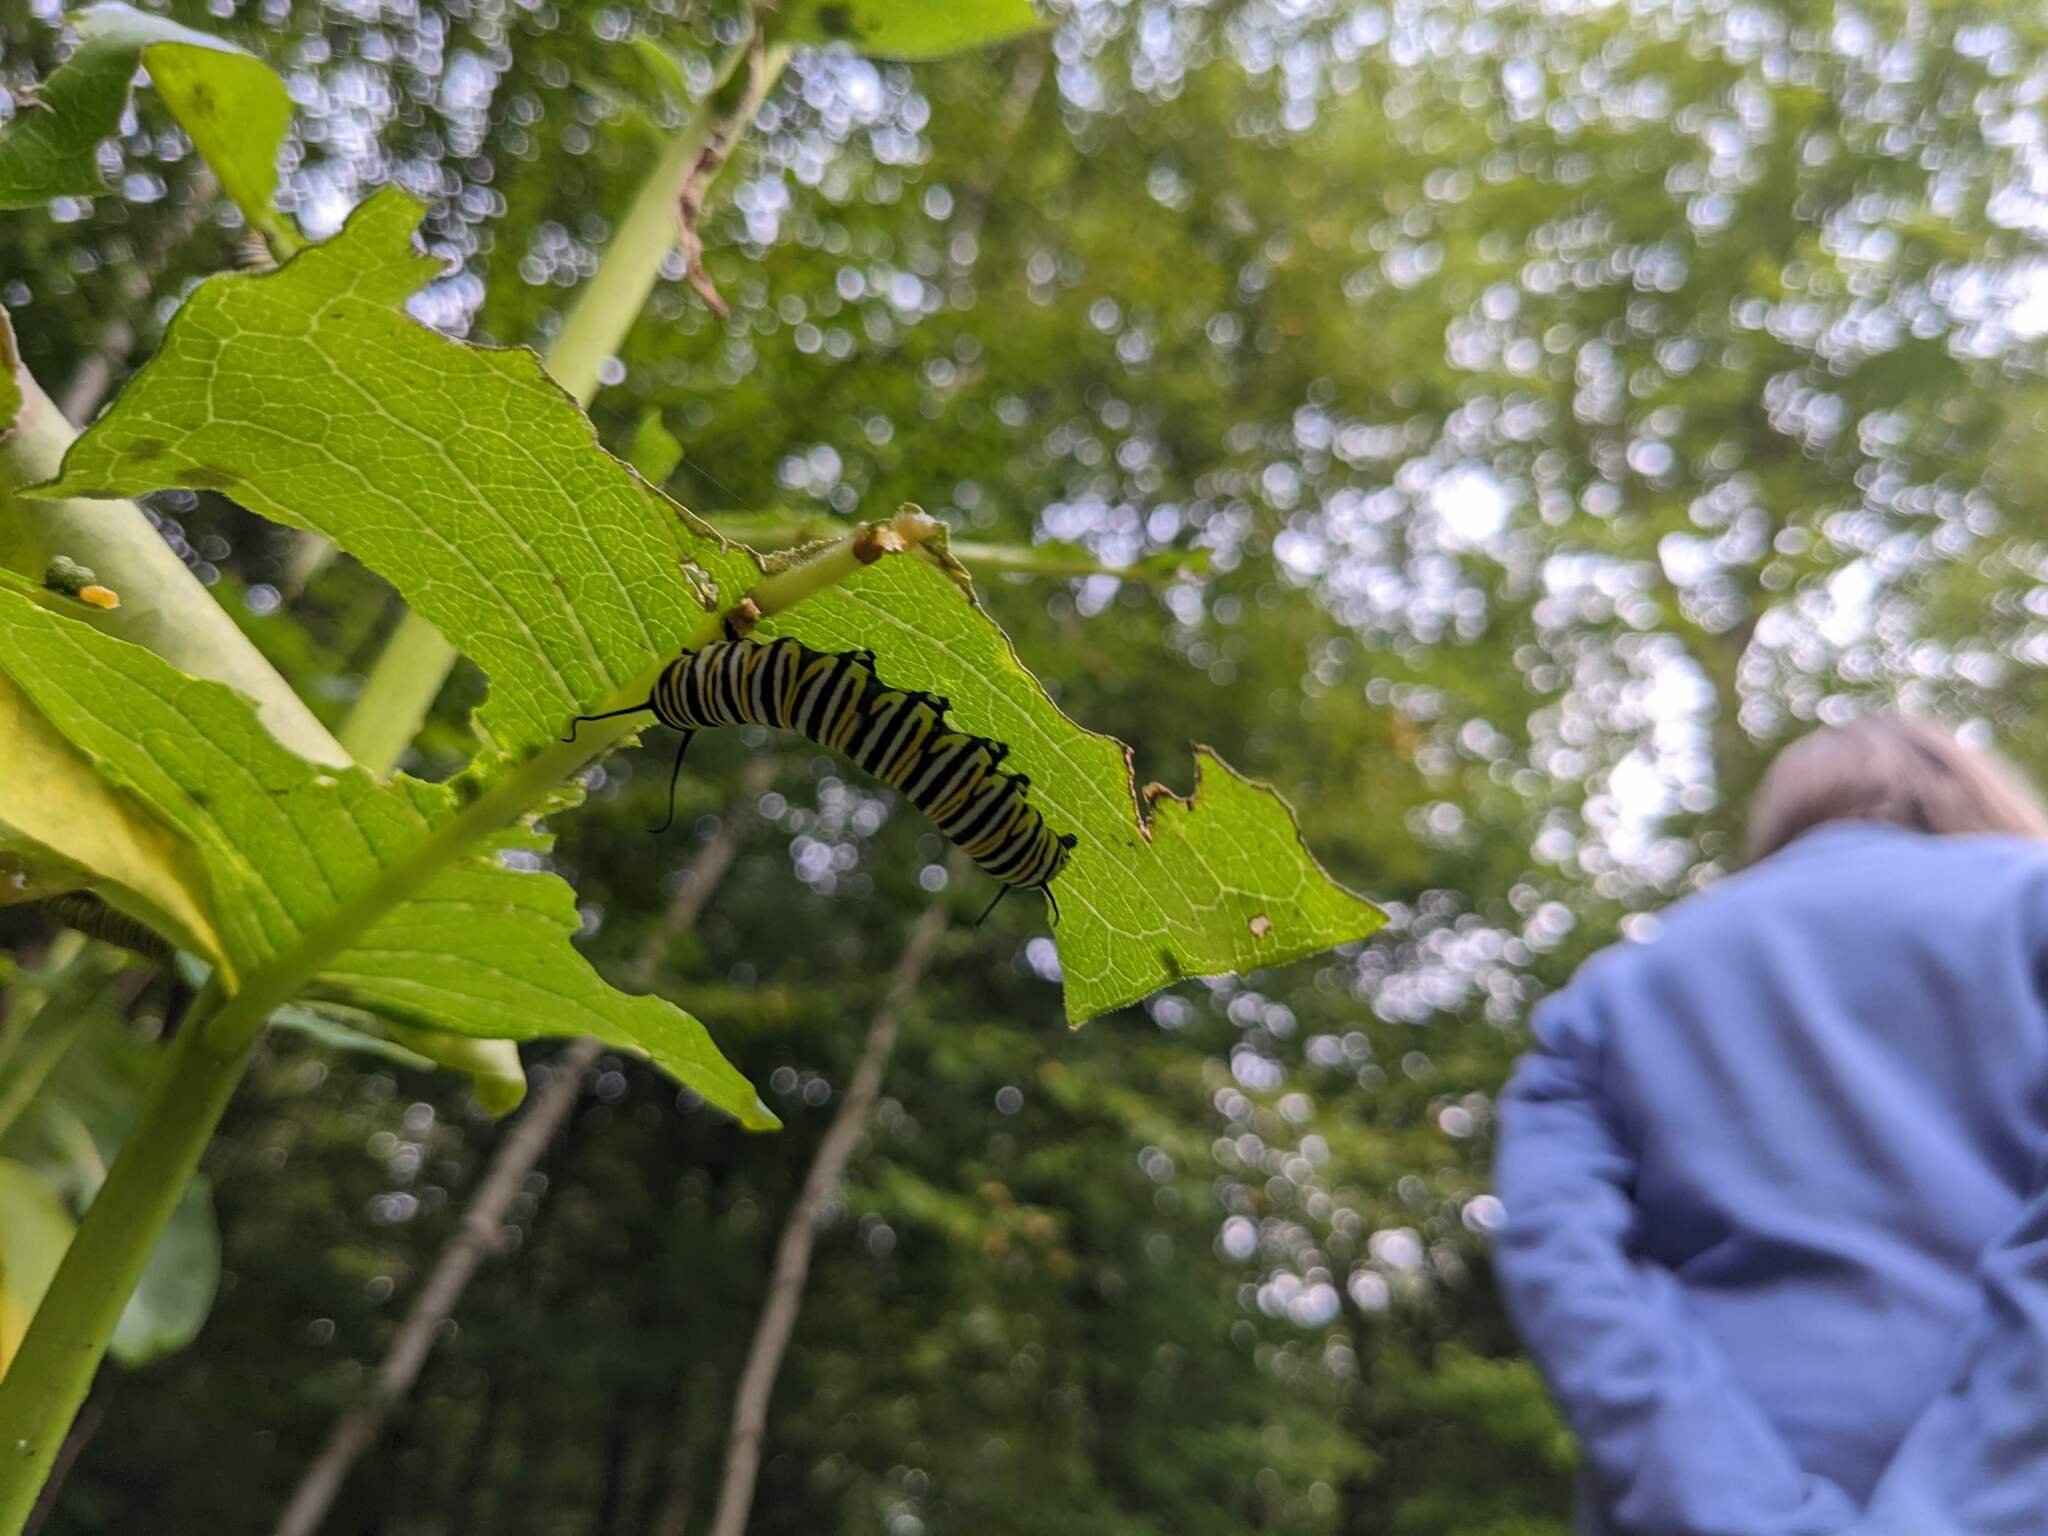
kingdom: Animalia
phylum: Arthropoda
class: Insecta
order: Lepidoptera
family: Nymphalidae
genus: Danaus
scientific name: Danaus plexippus
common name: Monarch
